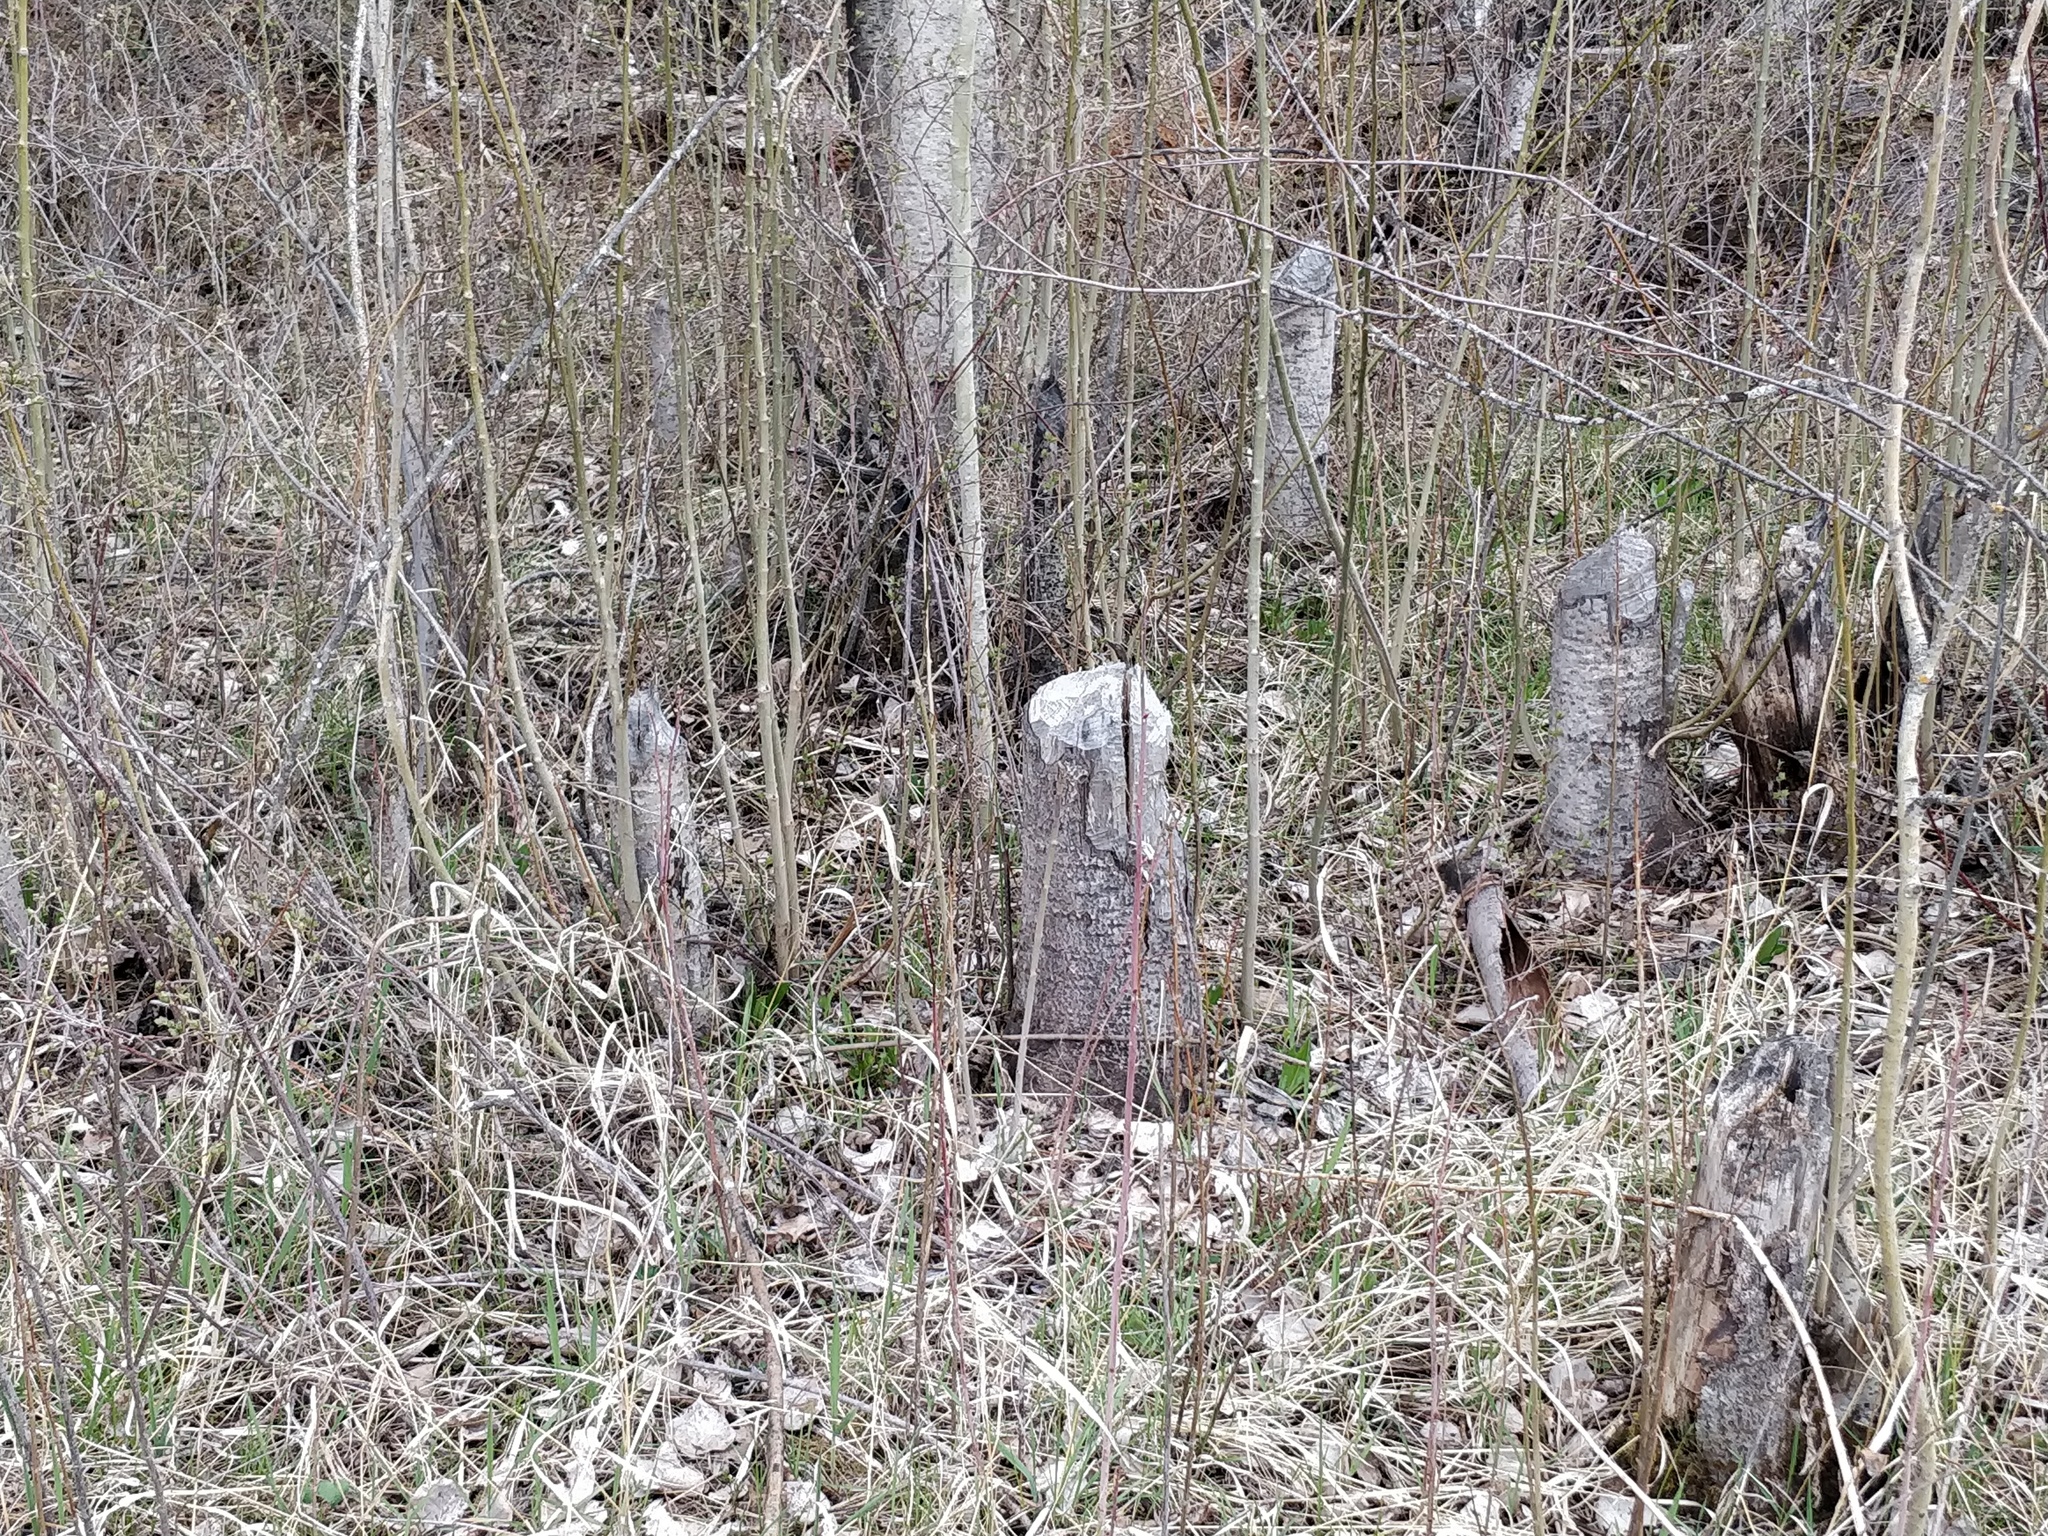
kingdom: Animalia
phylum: Chordata
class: Mammalia
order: Rodentia
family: Castoridae
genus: Castor
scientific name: Castor canadensis
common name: American beaver
